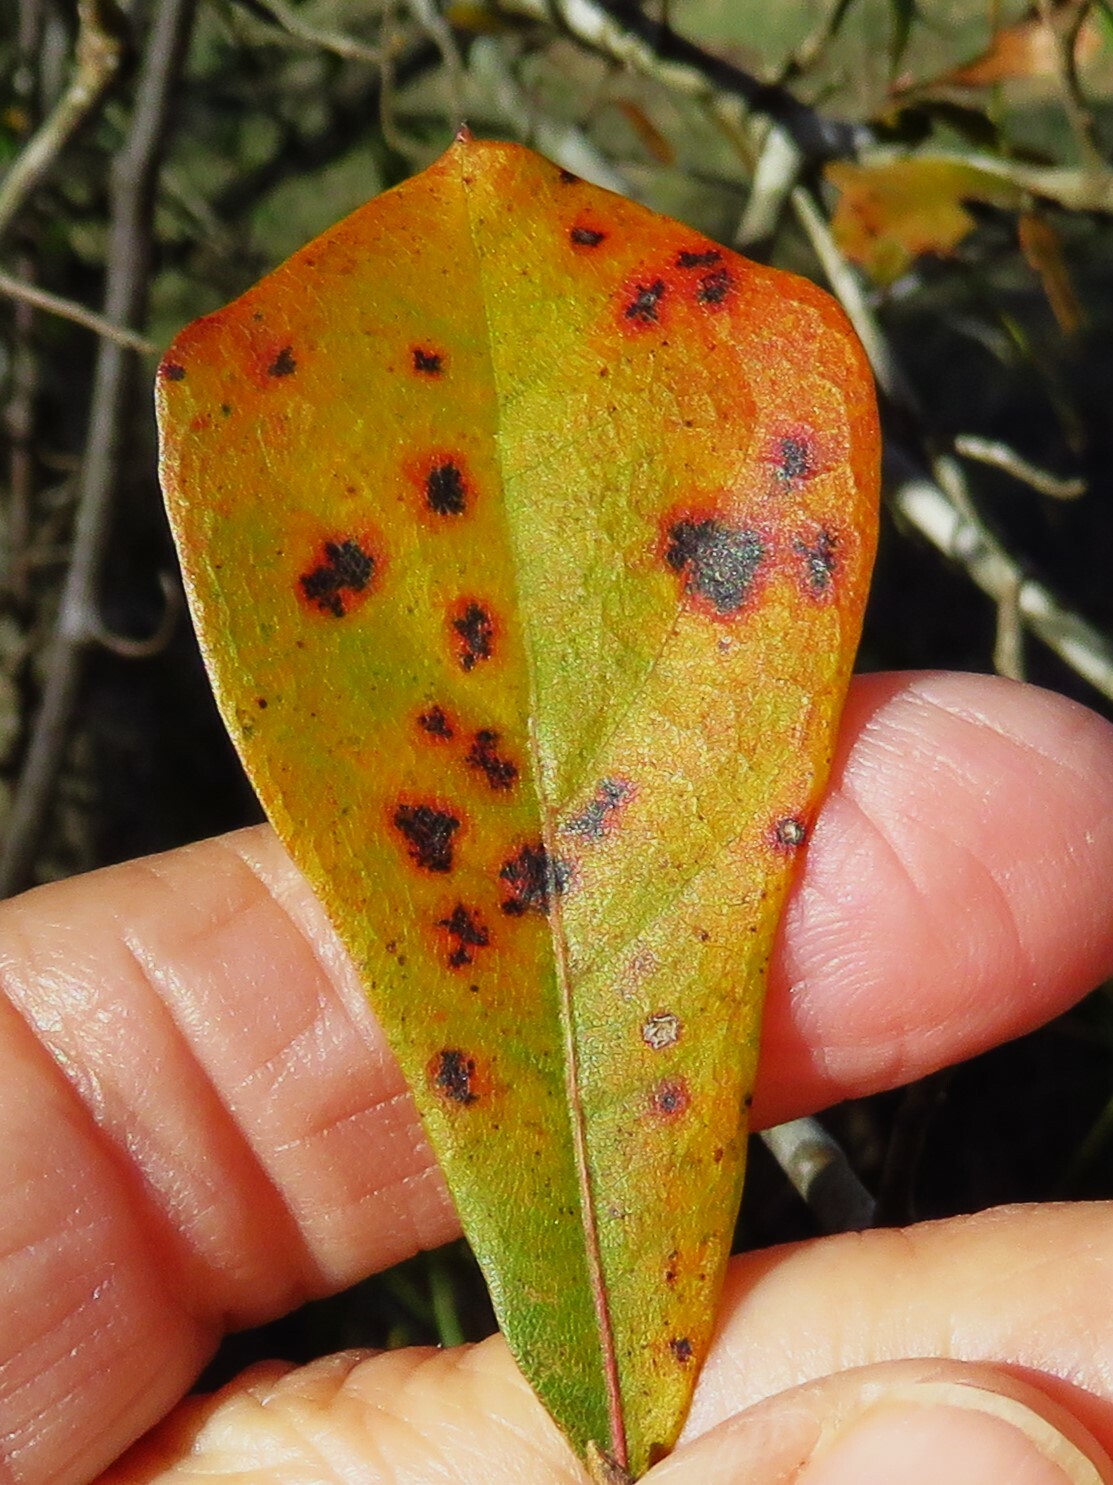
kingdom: Plantae
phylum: Tracheophyta
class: Magnoliopsida
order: Fagales
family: Fagaceae
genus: Quercus
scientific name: Quercus nigra
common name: Water oak
